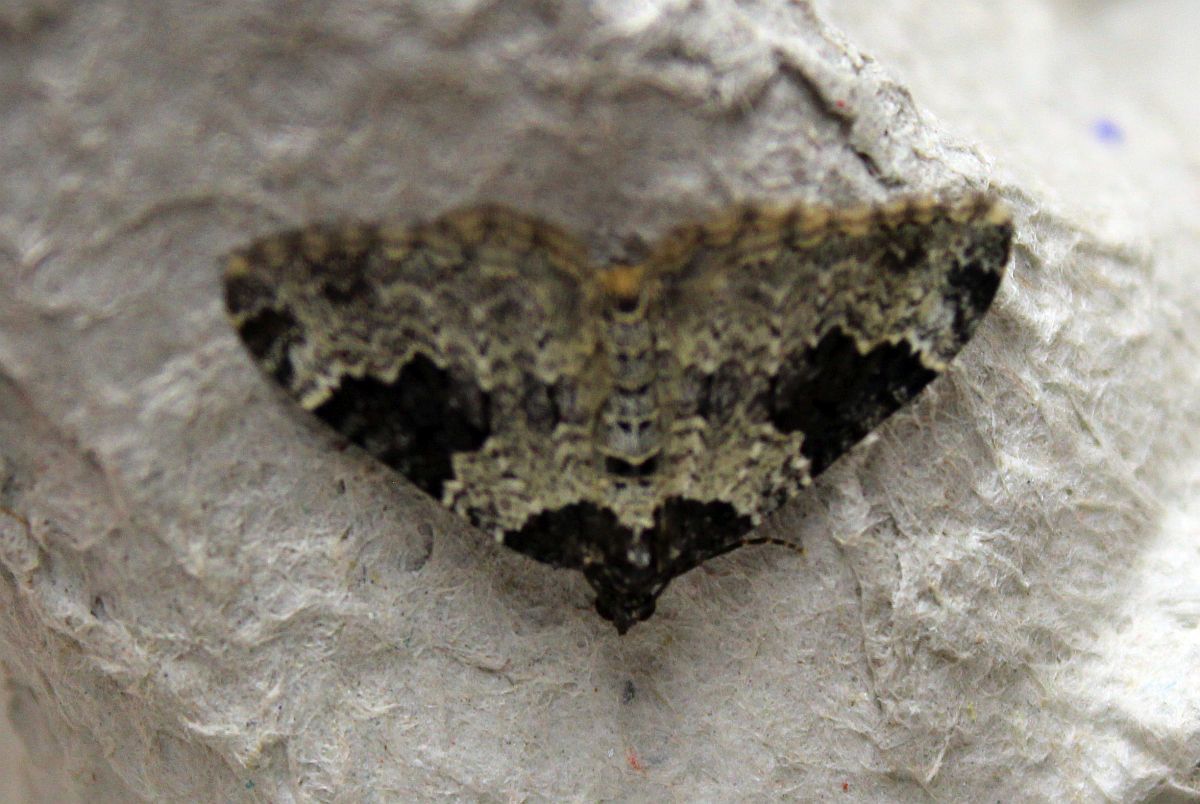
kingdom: Animalia
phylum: Arthropoda
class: Insecta
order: Lepidoptera
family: Geometridae
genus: Xanthorhoe
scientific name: Xanthorhoe fluctuata
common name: Garden carpet
